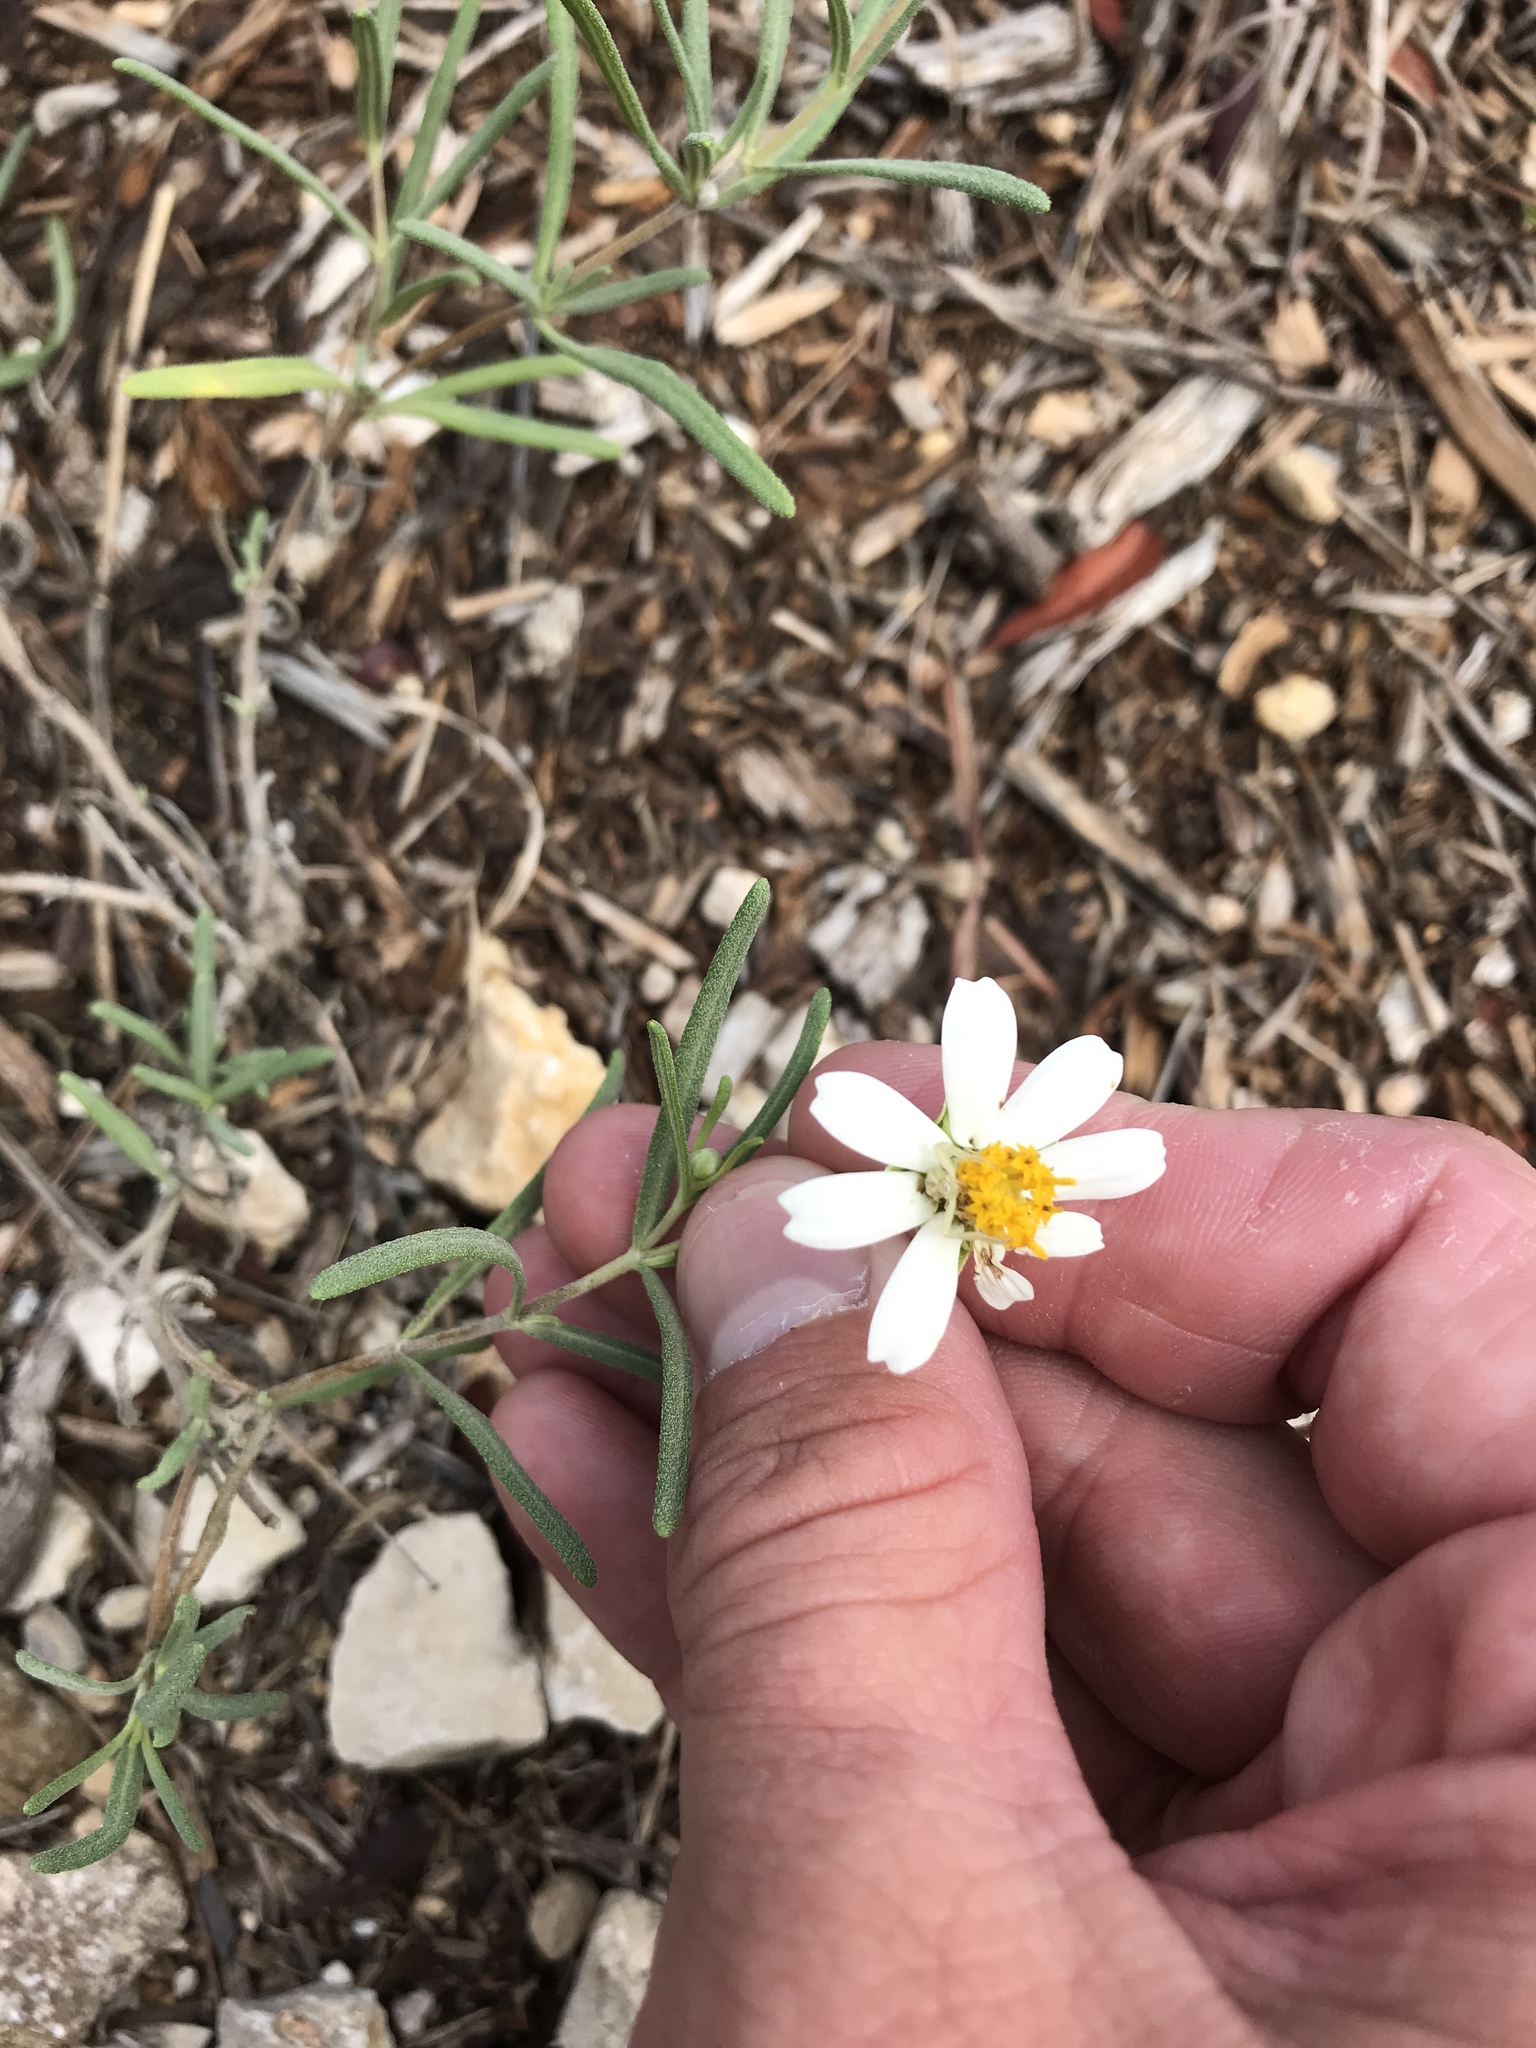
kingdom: Plantae
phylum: Tracheophyta
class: Magnoliopsida
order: Asterales
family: Asteraceae
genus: Melampodium
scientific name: Melampodium leucanthum
